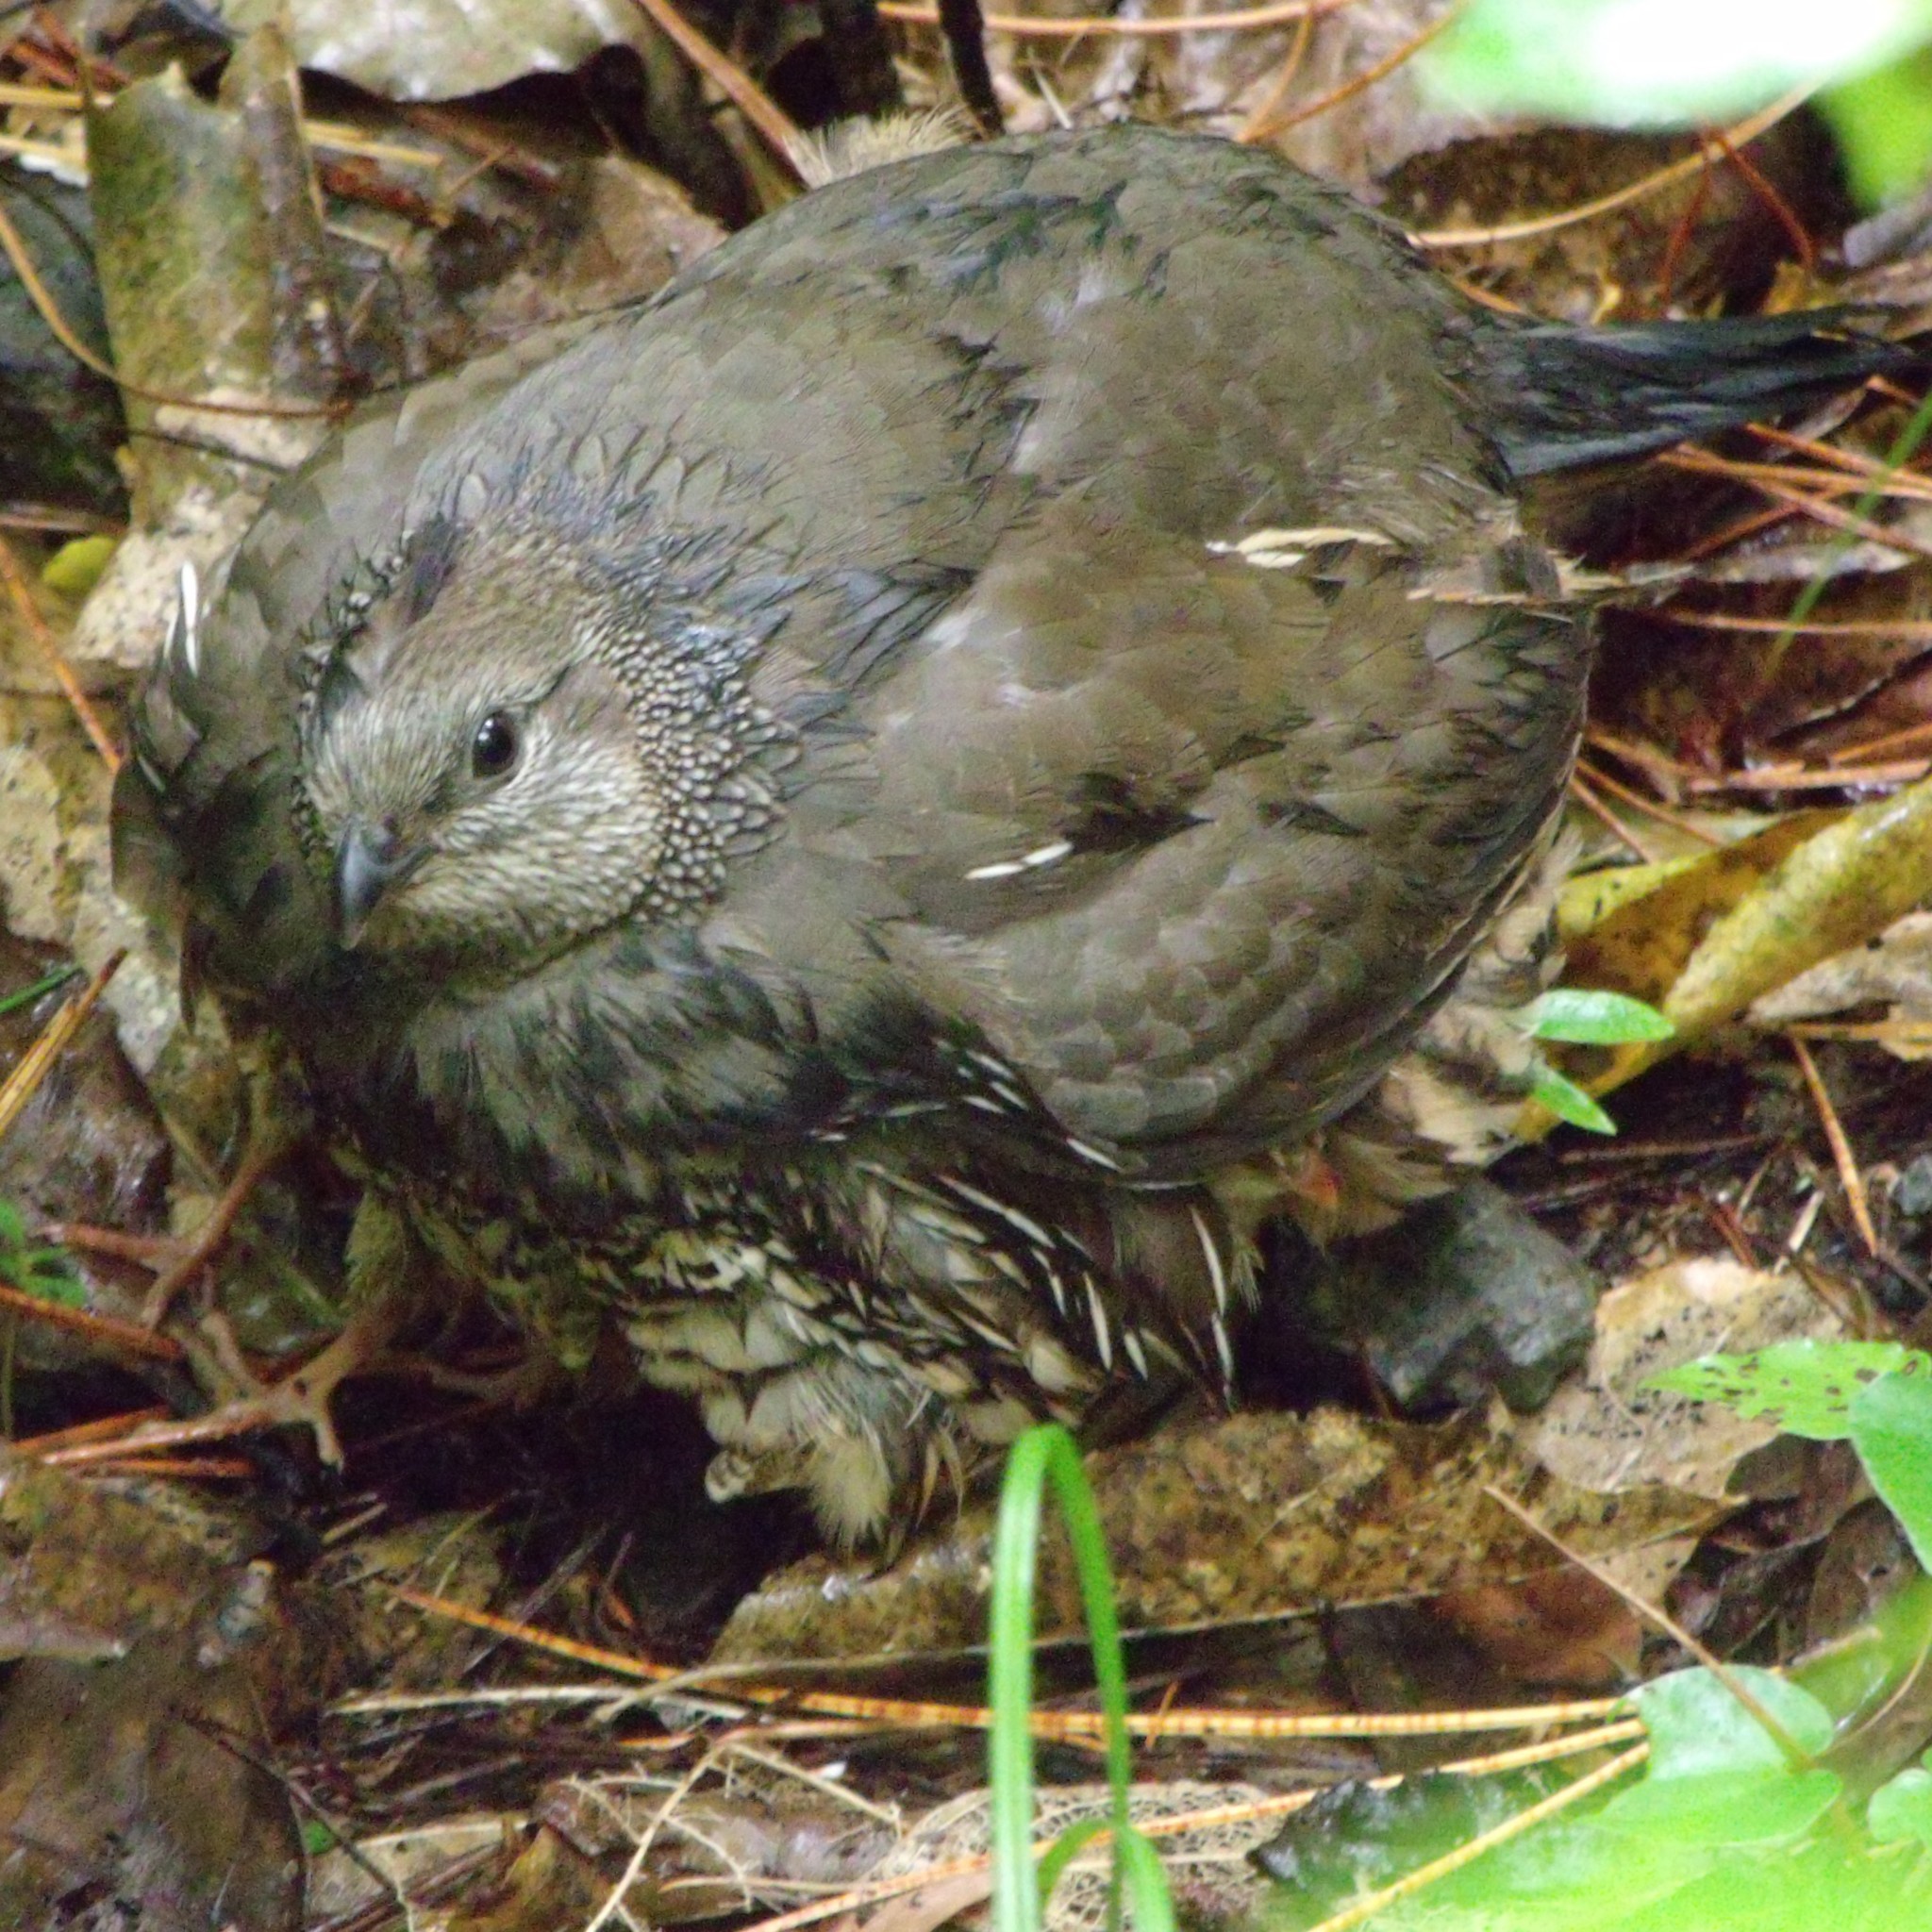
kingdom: Animalia
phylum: Chordata
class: Aves
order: Galliformes
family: Odontophoridae
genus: Callipepla
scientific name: Callipepla californica
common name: California quail
